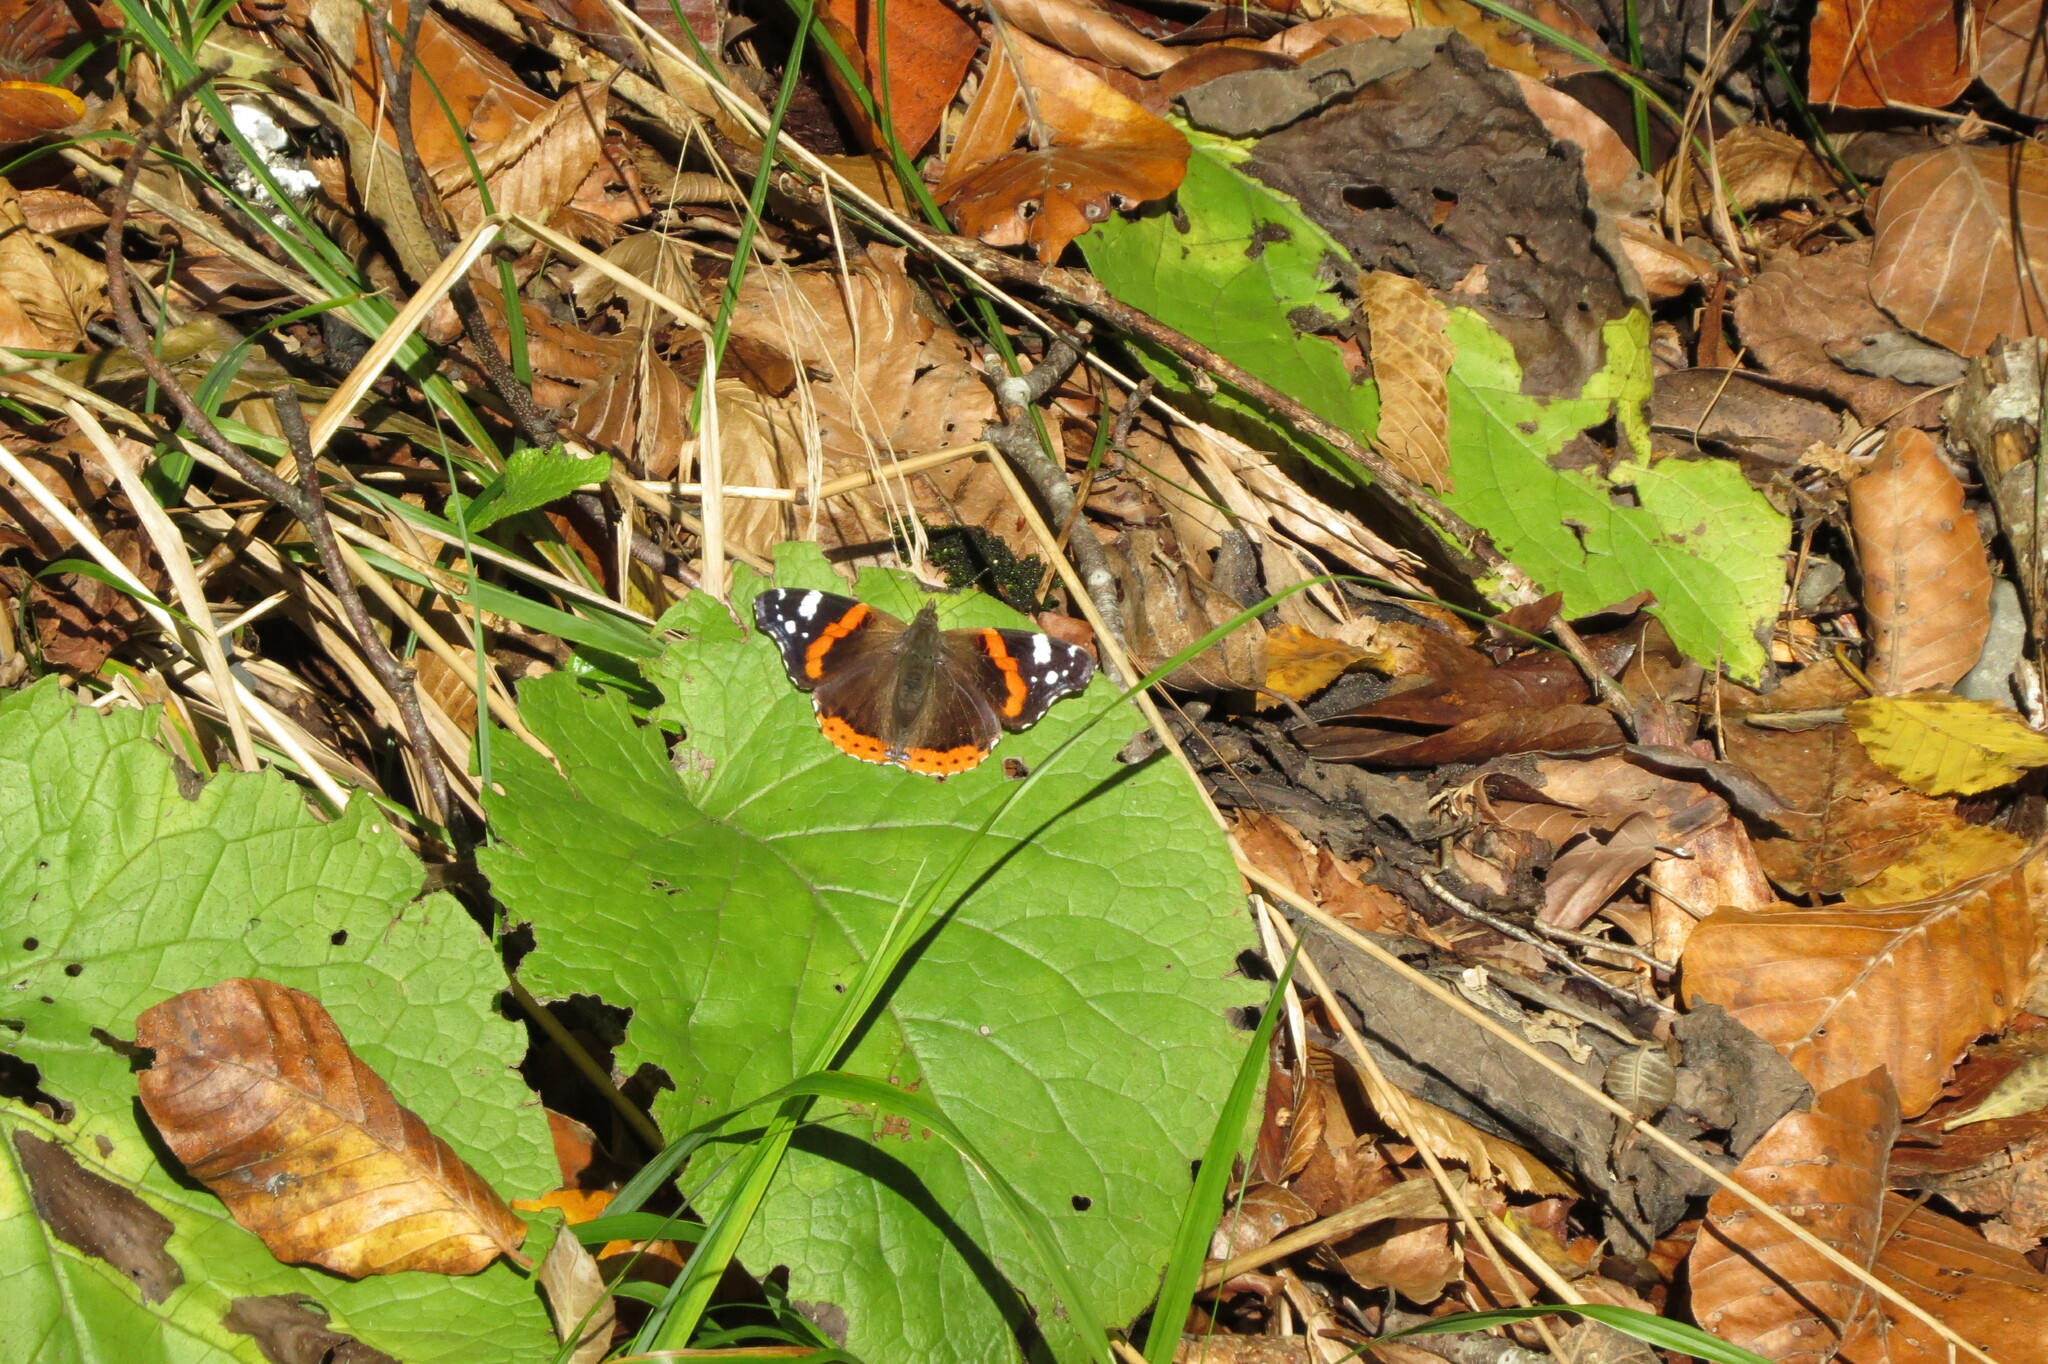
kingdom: Animalia
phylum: Arthropoda
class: Insecta
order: Lepidoptera
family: Nymphalidae
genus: Vanessa
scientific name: Vanessa atalanta
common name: Red admiral
